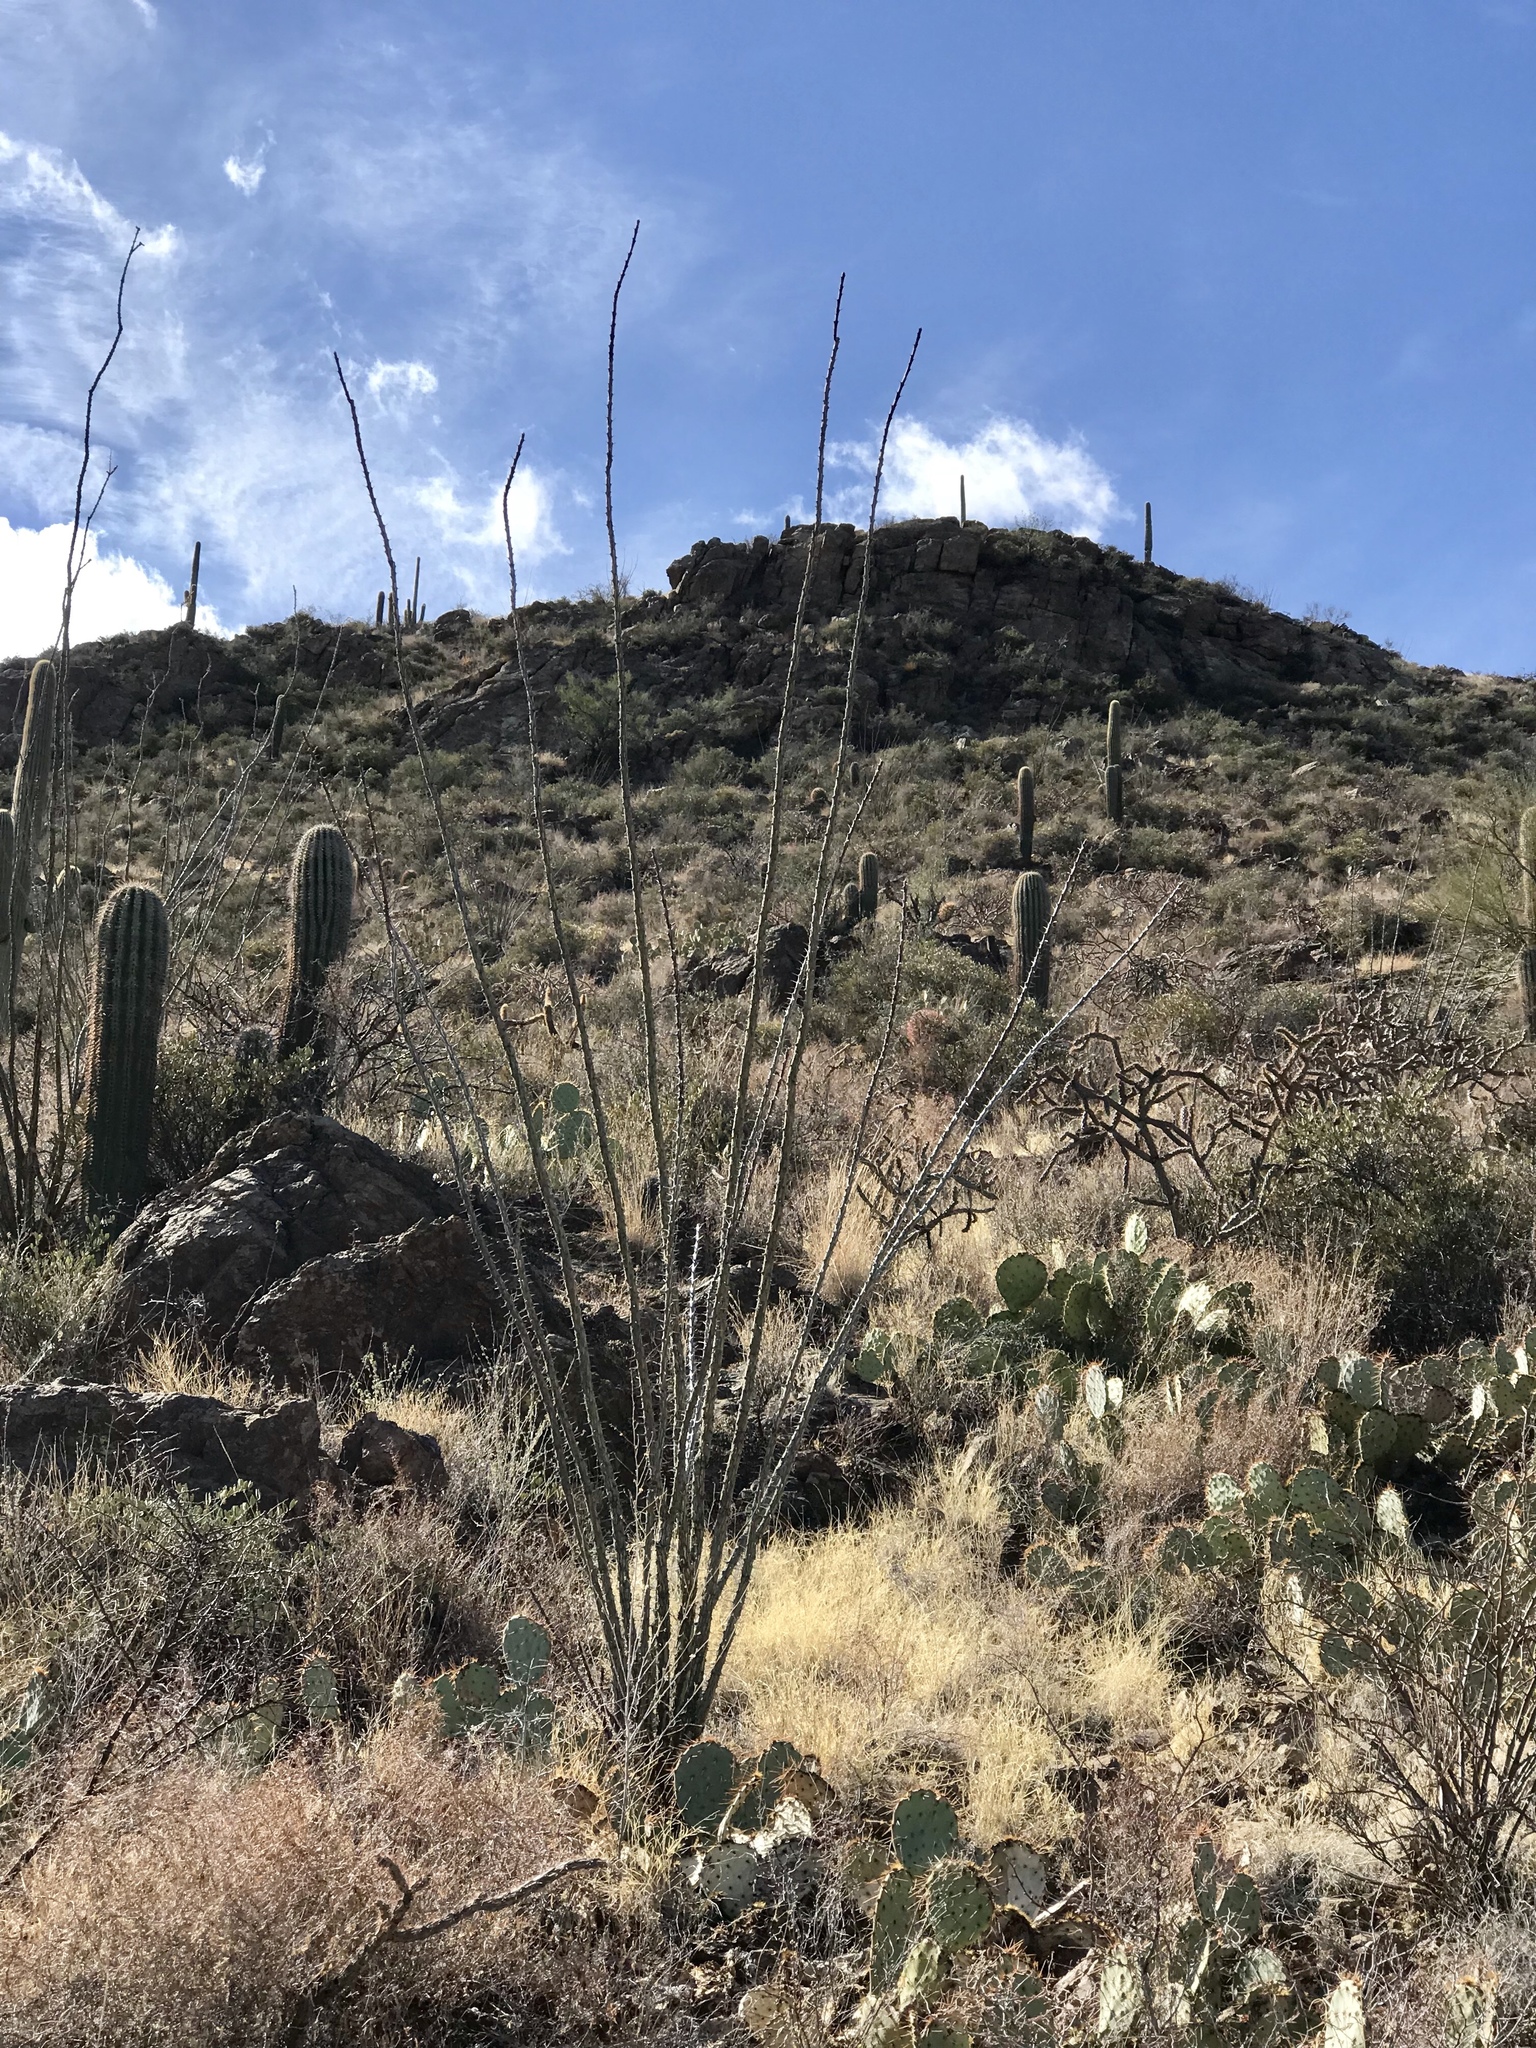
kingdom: Plantae
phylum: Tracheophyta
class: Magnoliopsida
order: Ericales
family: Fouquieriaceae
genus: Fouquieria
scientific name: Fouquieria splendens
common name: Vine-cactus
